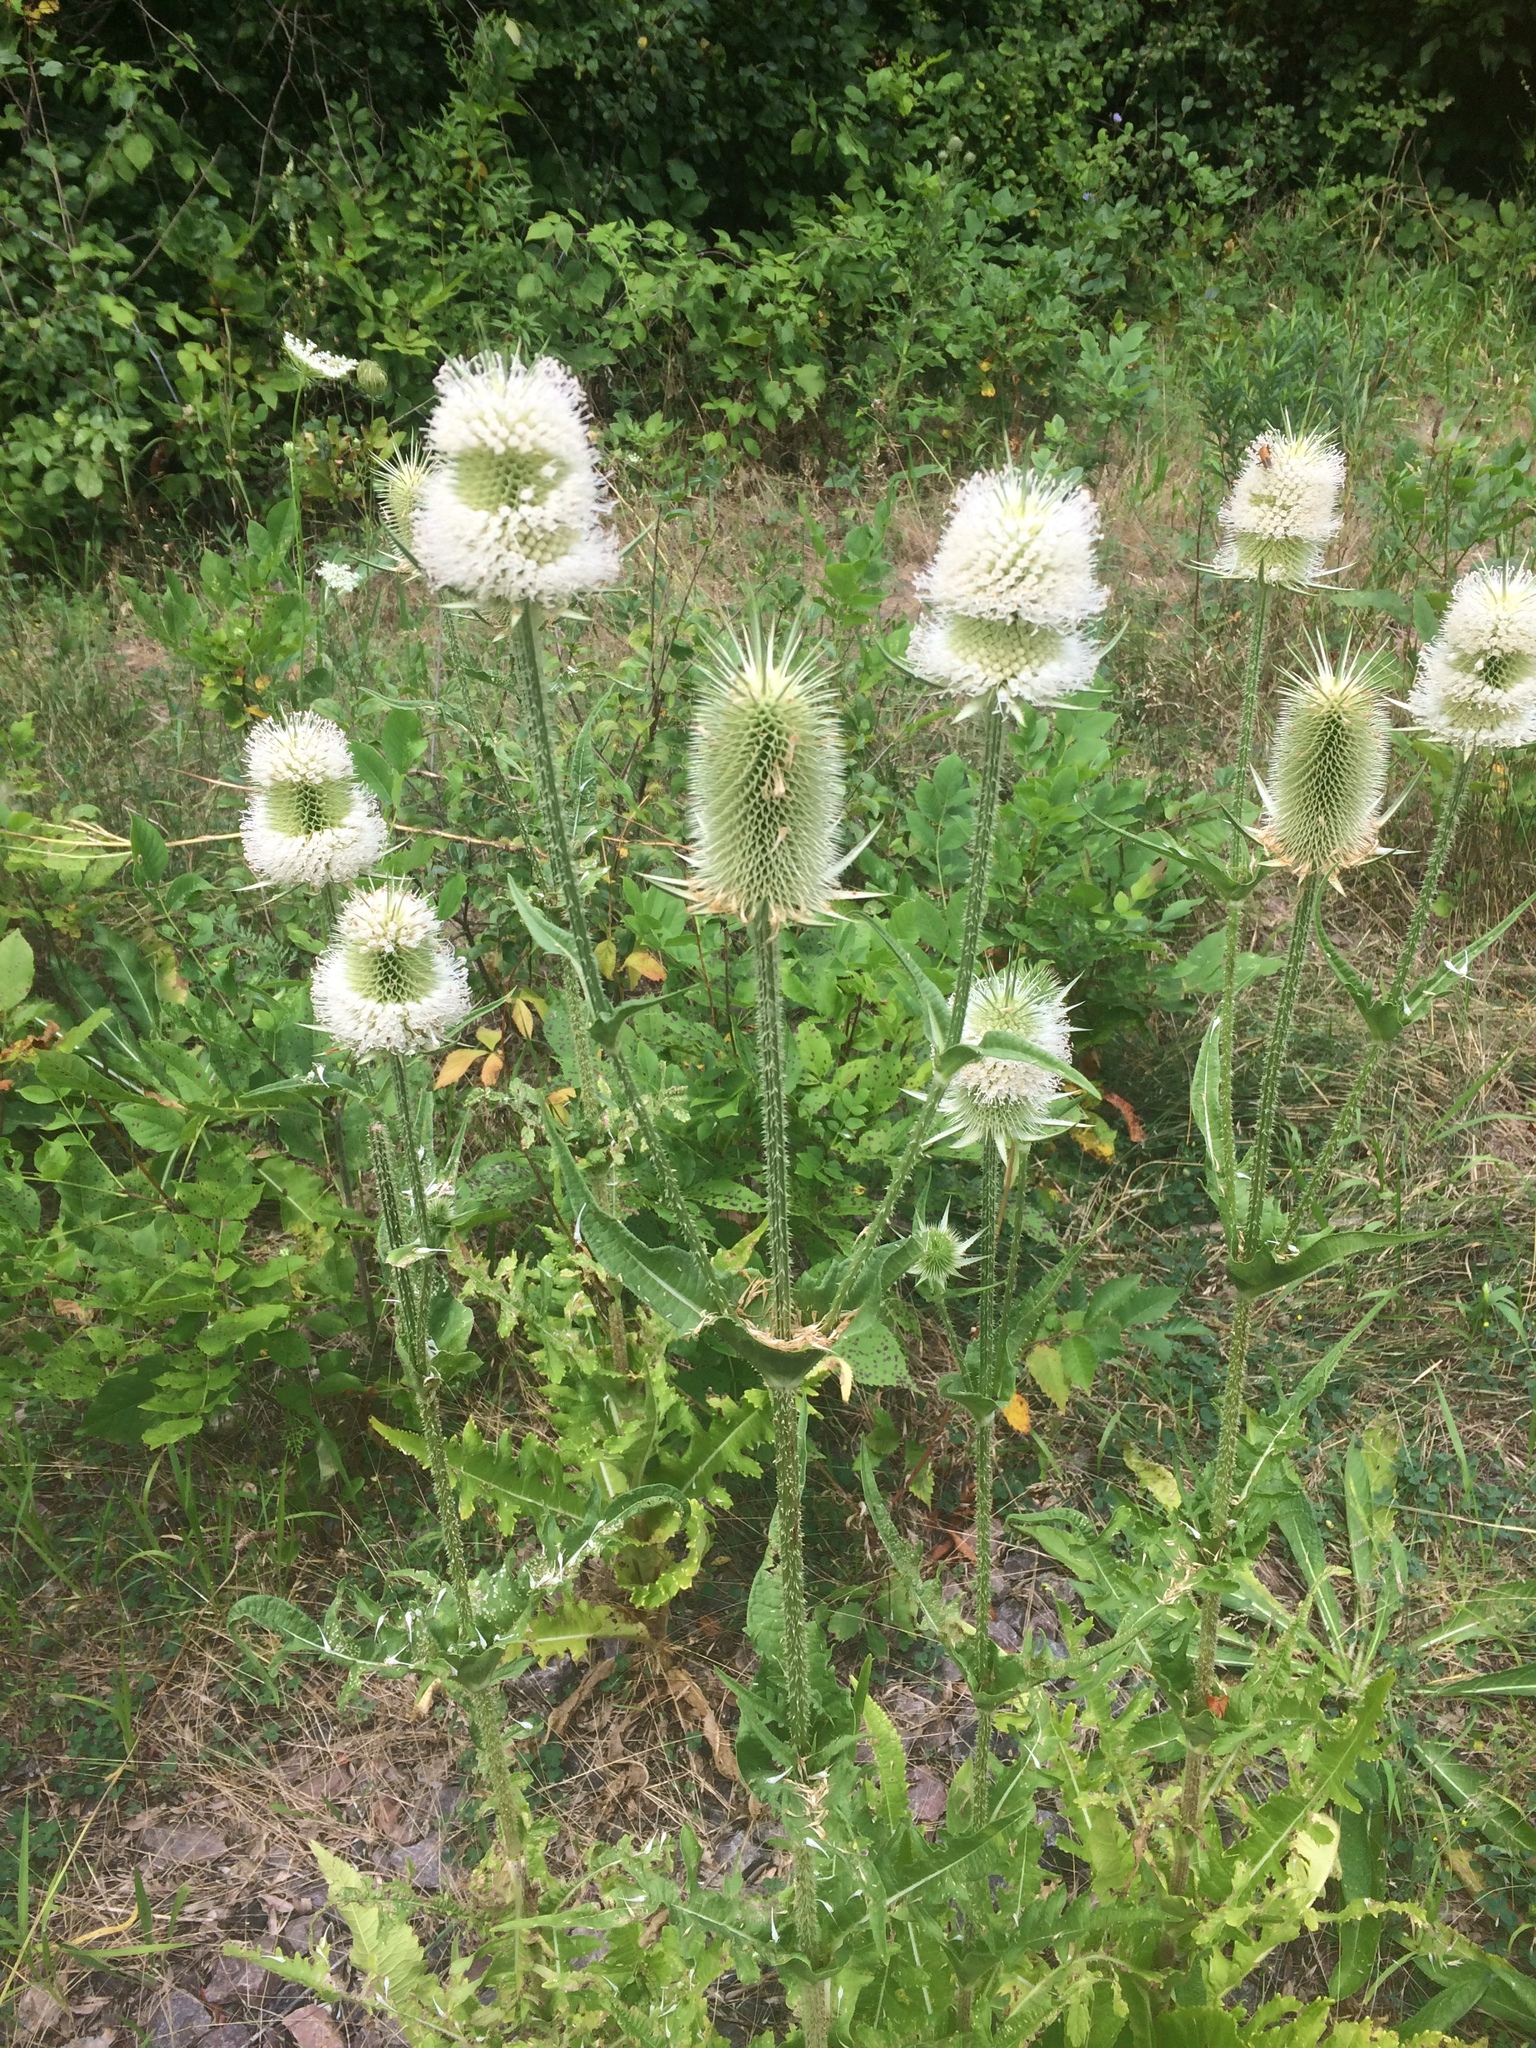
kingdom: Plantae
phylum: Tracheophyta
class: Magnoliopsida
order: Dipsacales
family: Caprifoliaceae
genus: Dipsacus
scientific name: Dipsacus laciniatus
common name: Cut-leaved teasel
